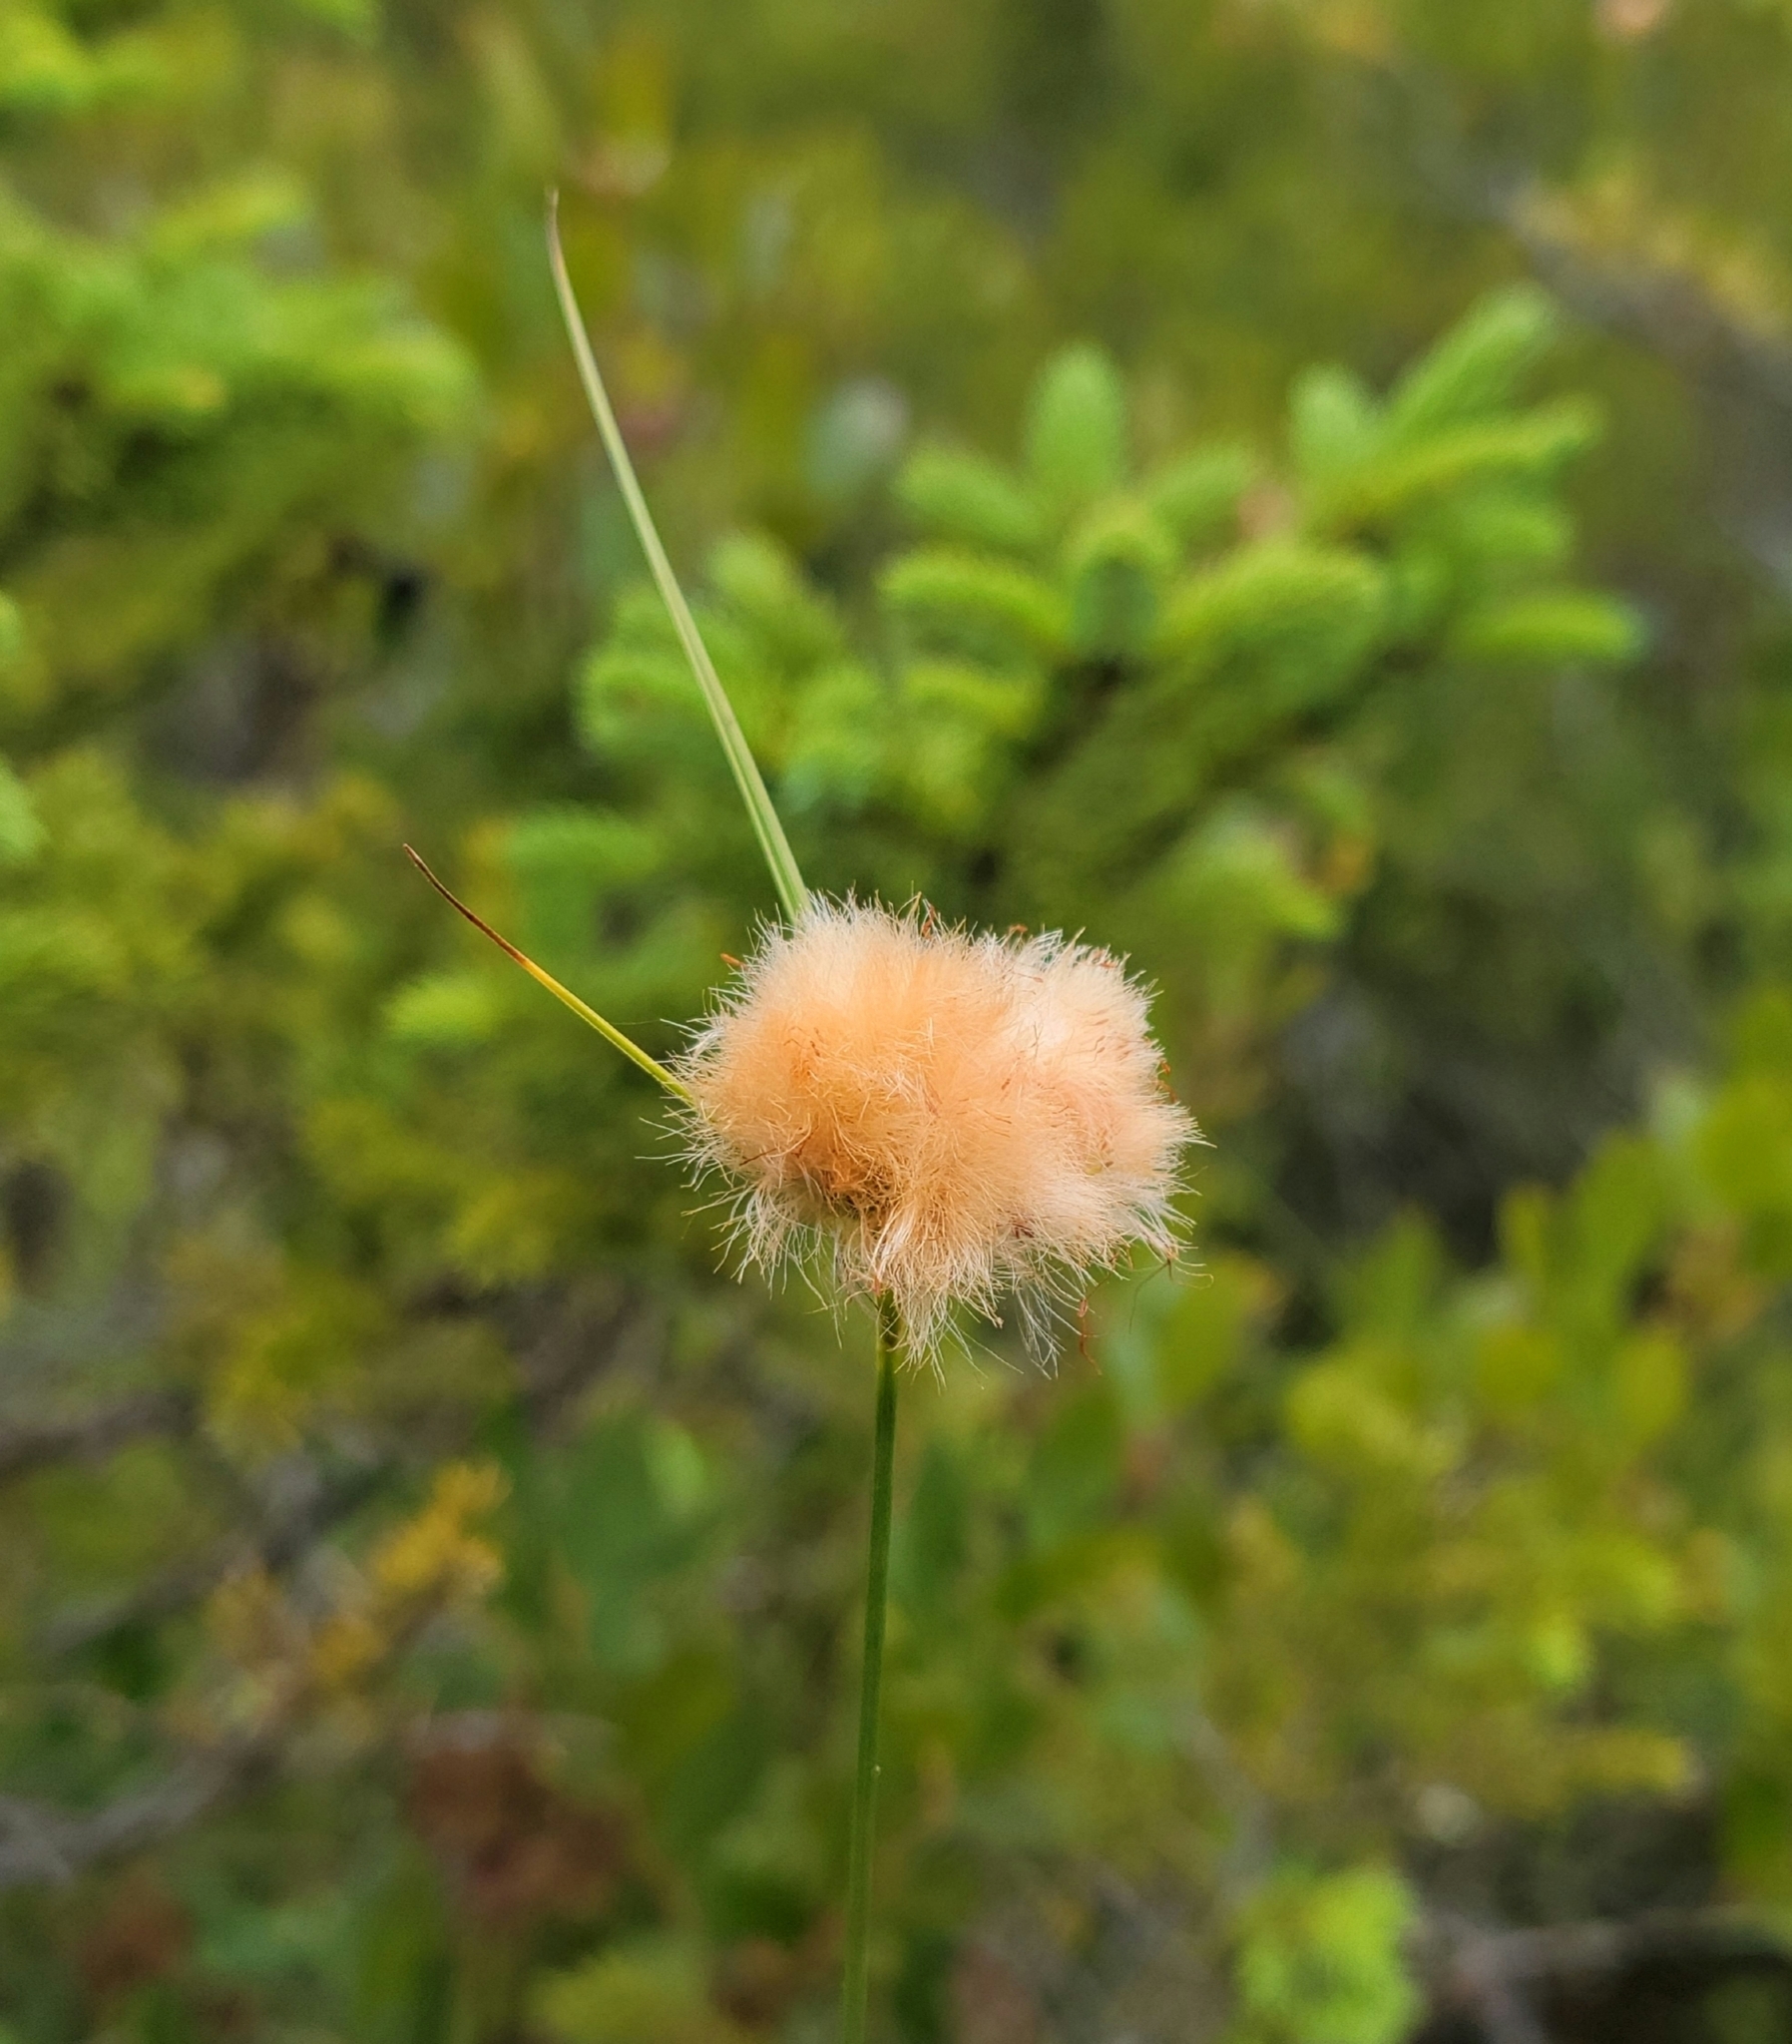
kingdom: Plantae
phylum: Tracheophyta
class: Liliopsida
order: Poales
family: Cyperaceae
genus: Eriophorum
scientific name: Eriophorum virginicum
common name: Tawny cottongrass
